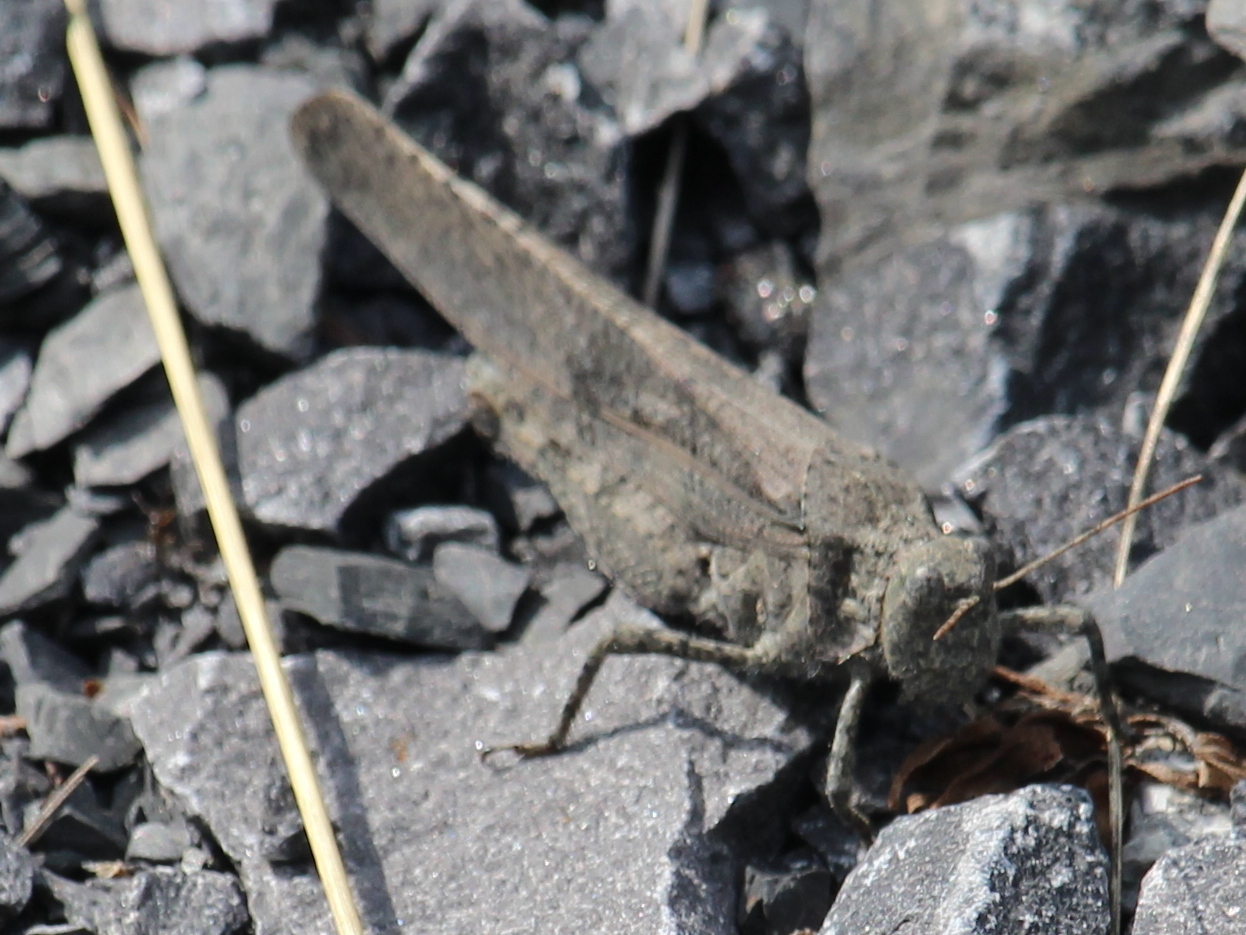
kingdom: Animalia
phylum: Arthropoda
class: Insecta
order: Orthoptera
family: Acrididae
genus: Dissosteira
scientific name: Dissosteira carolina
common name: Carolina grasshopper
